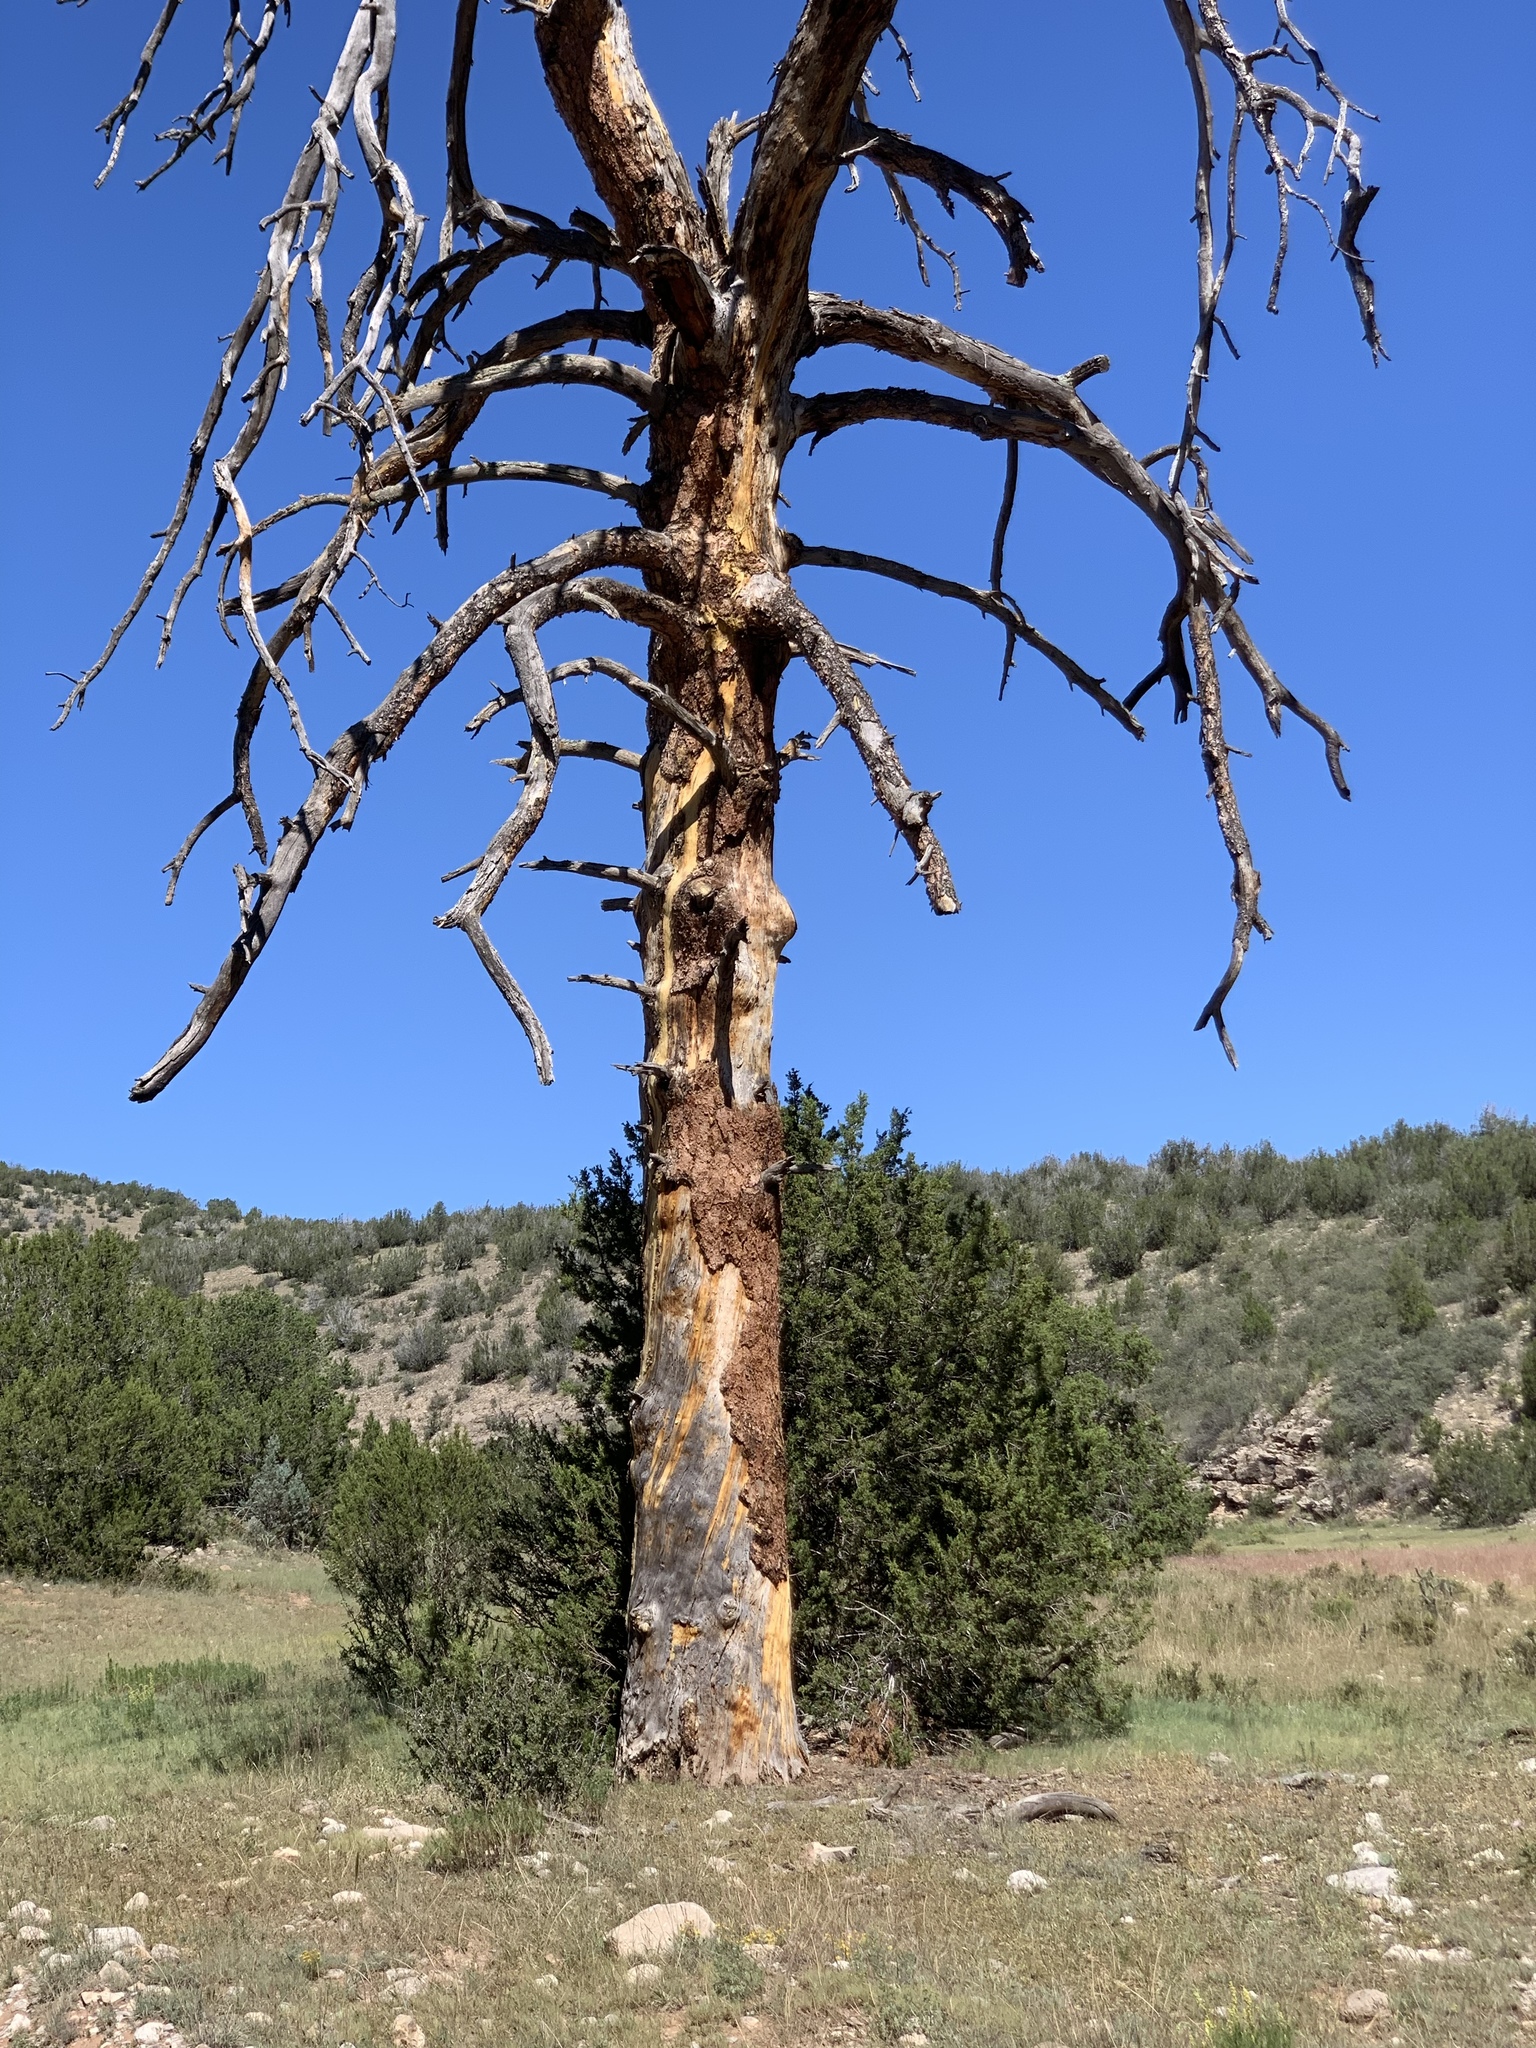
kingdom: Plantae
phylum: Tracheophyta
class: Pinopsida
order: Pinales
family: Pinaceae
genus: Pinus
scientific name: Pinus ponderosa
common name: Western yellow-pine
